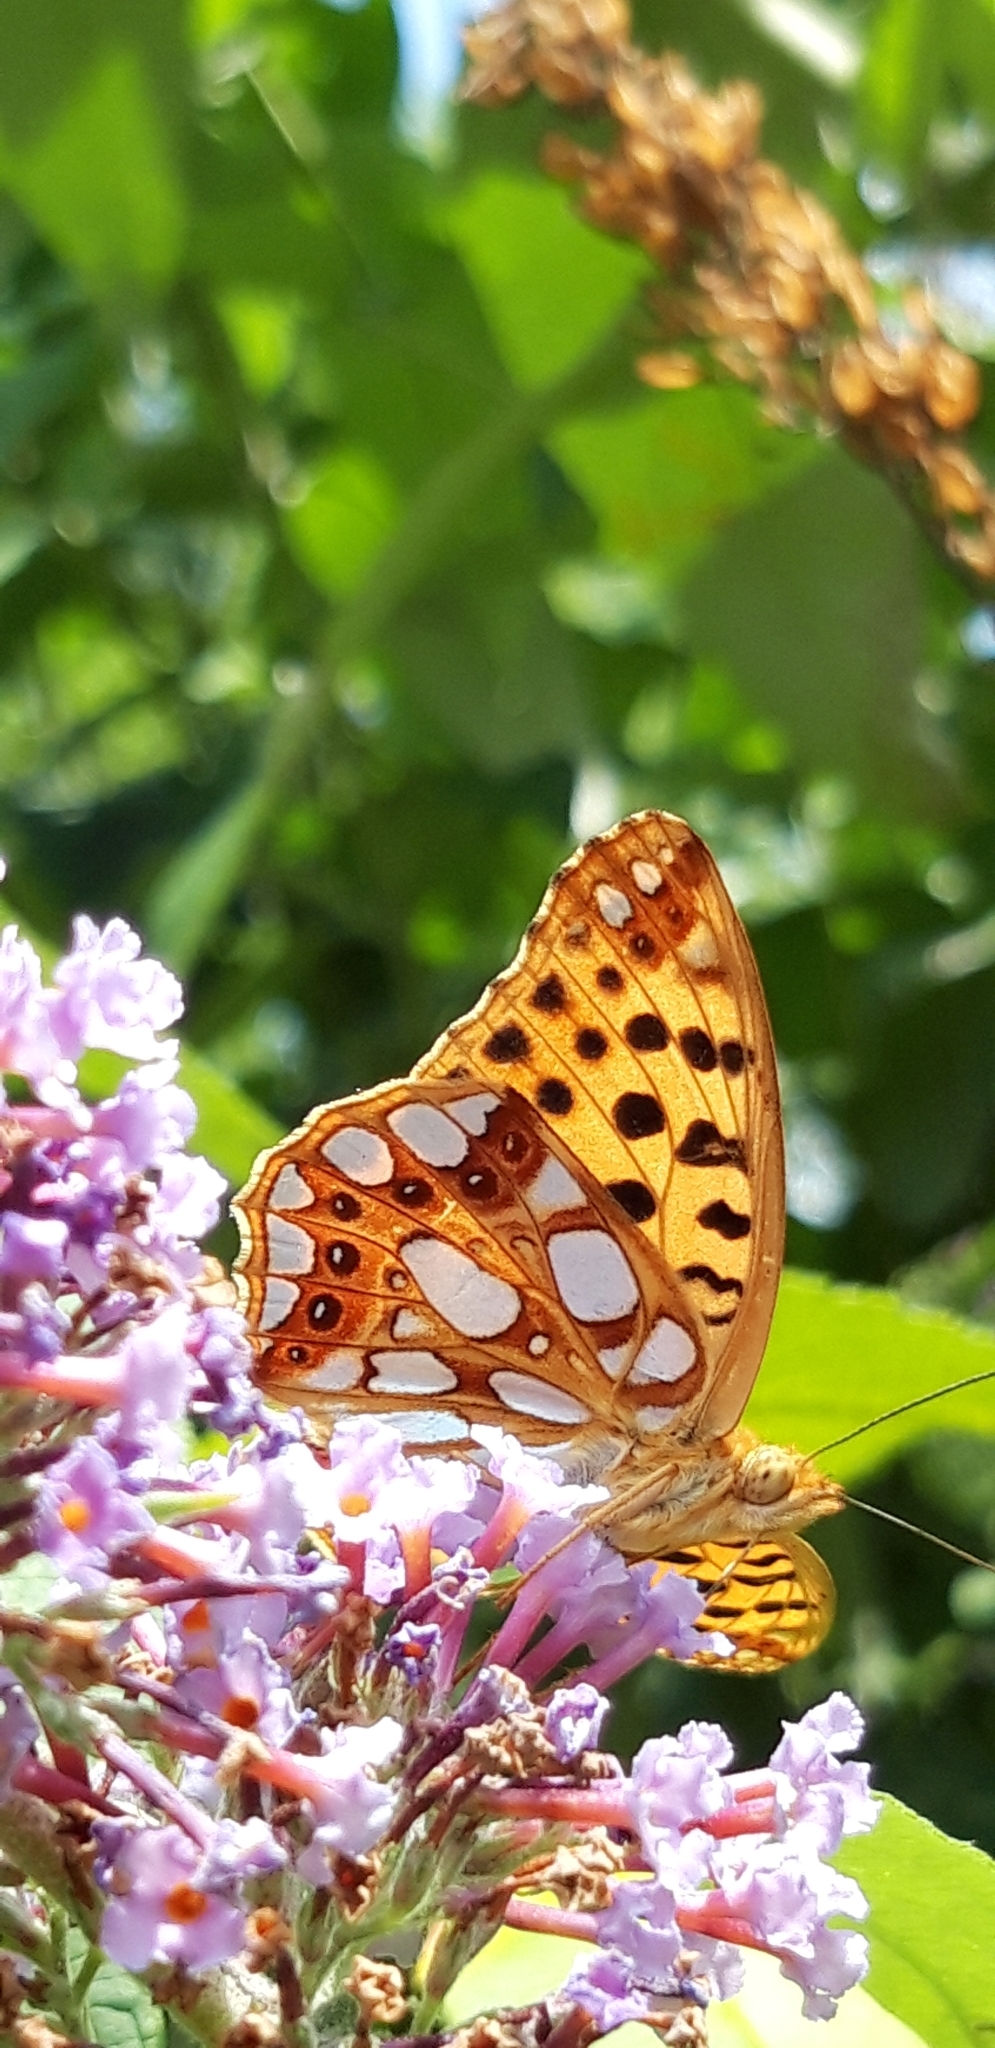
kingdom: Animalia
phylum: Arthropoda
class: Insecta
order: Lepidoptera
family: Nymphalidae
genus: Issoria
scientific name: Issoria lathonia
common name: Queen of spain fritillary
